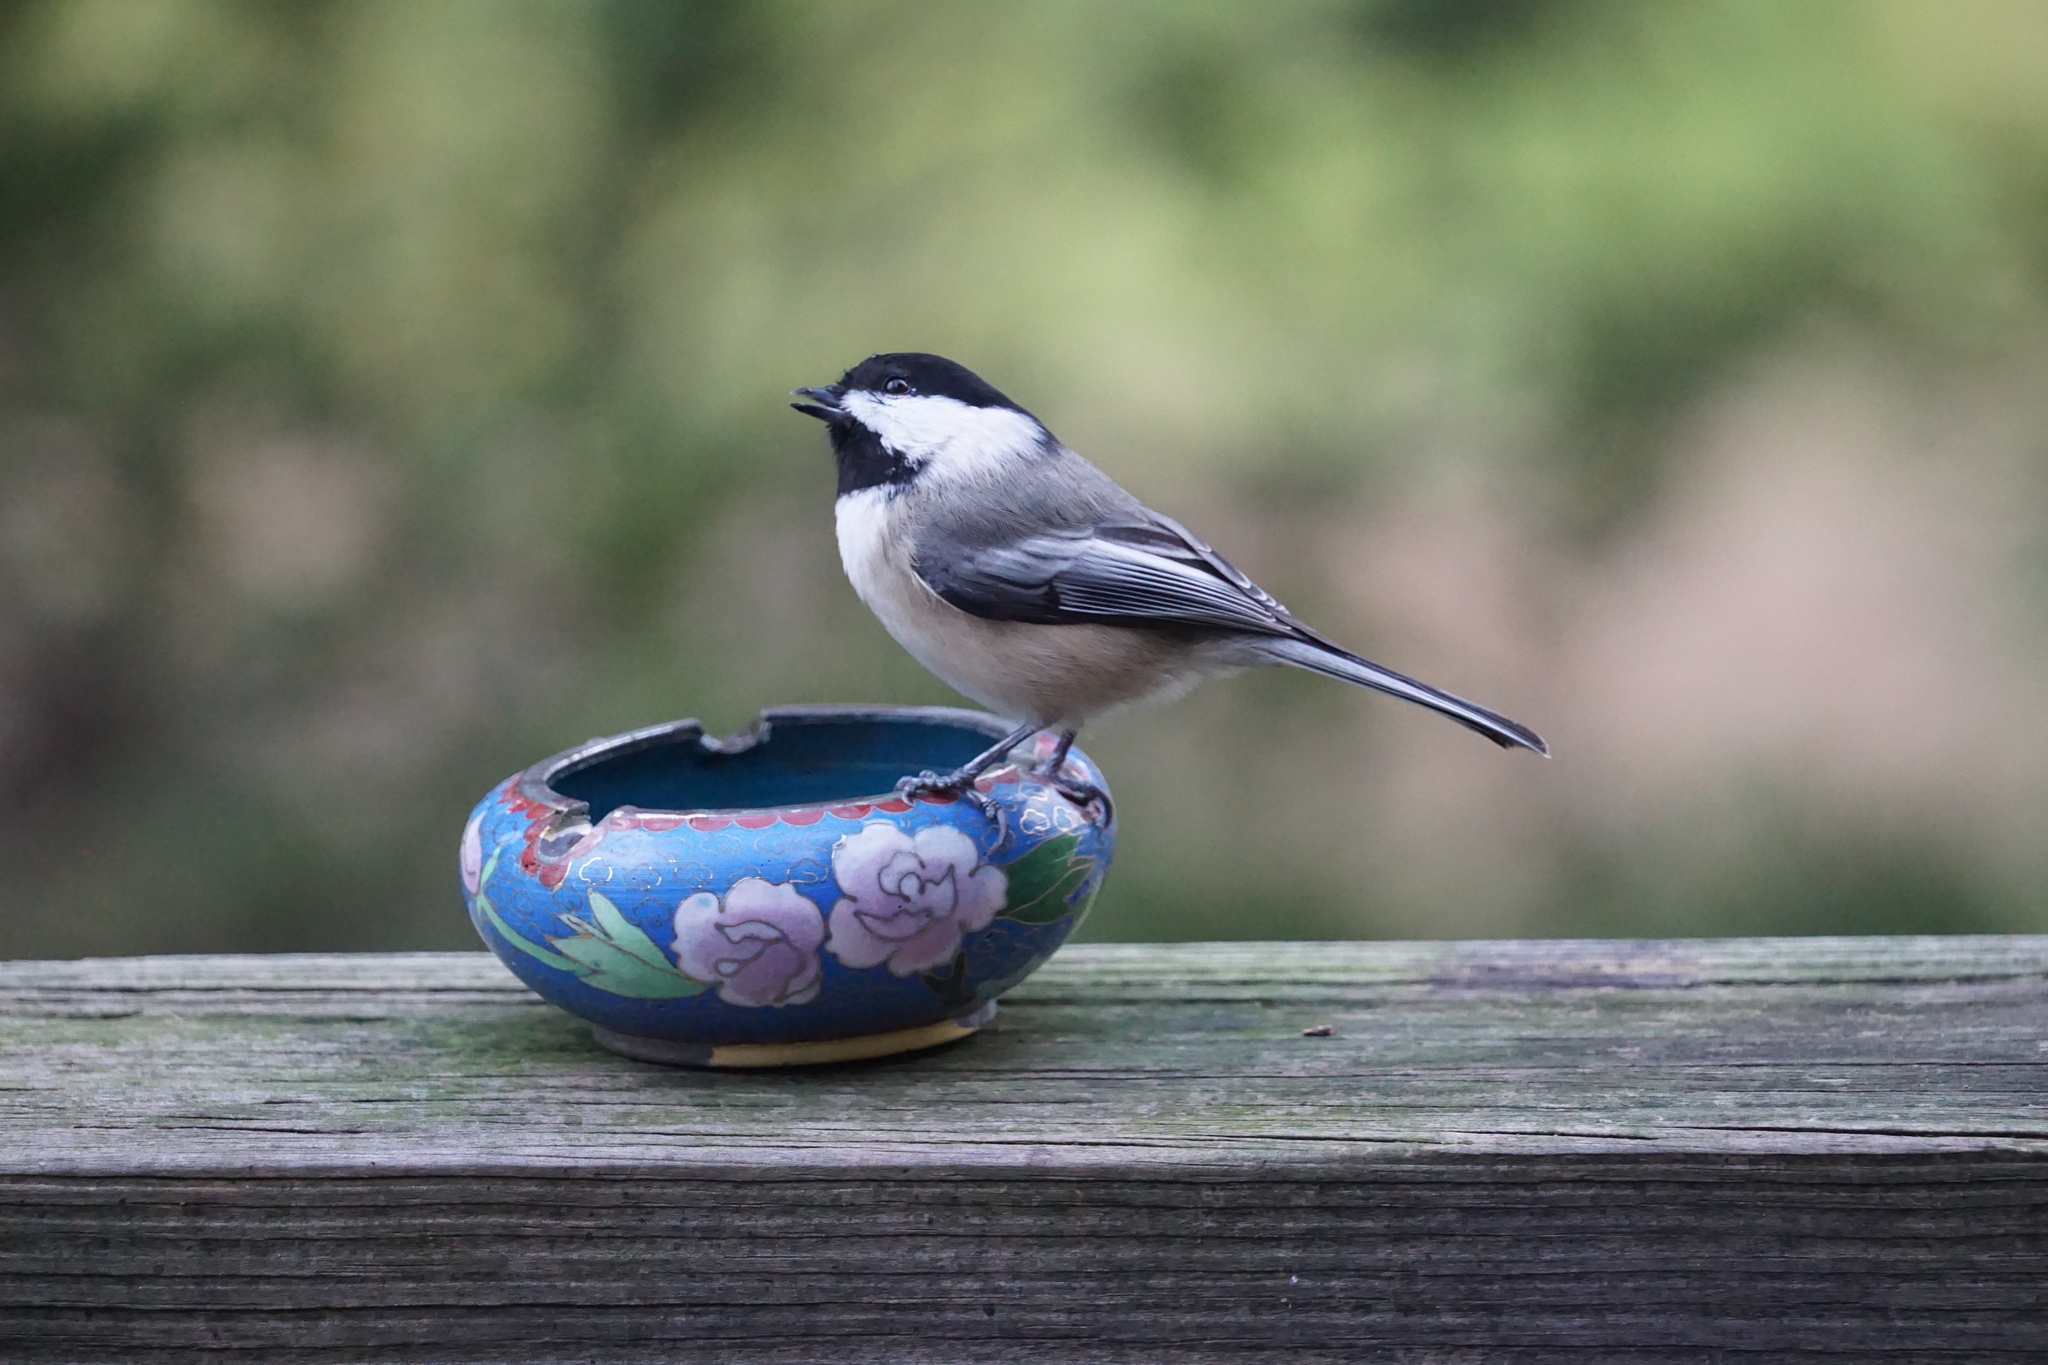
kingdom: Animalia
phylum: Chordata
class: Aves
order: Passeriformes
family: Paridae
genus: Poecile
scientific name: Poecile atricapillus
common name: Black-capped chickadee
